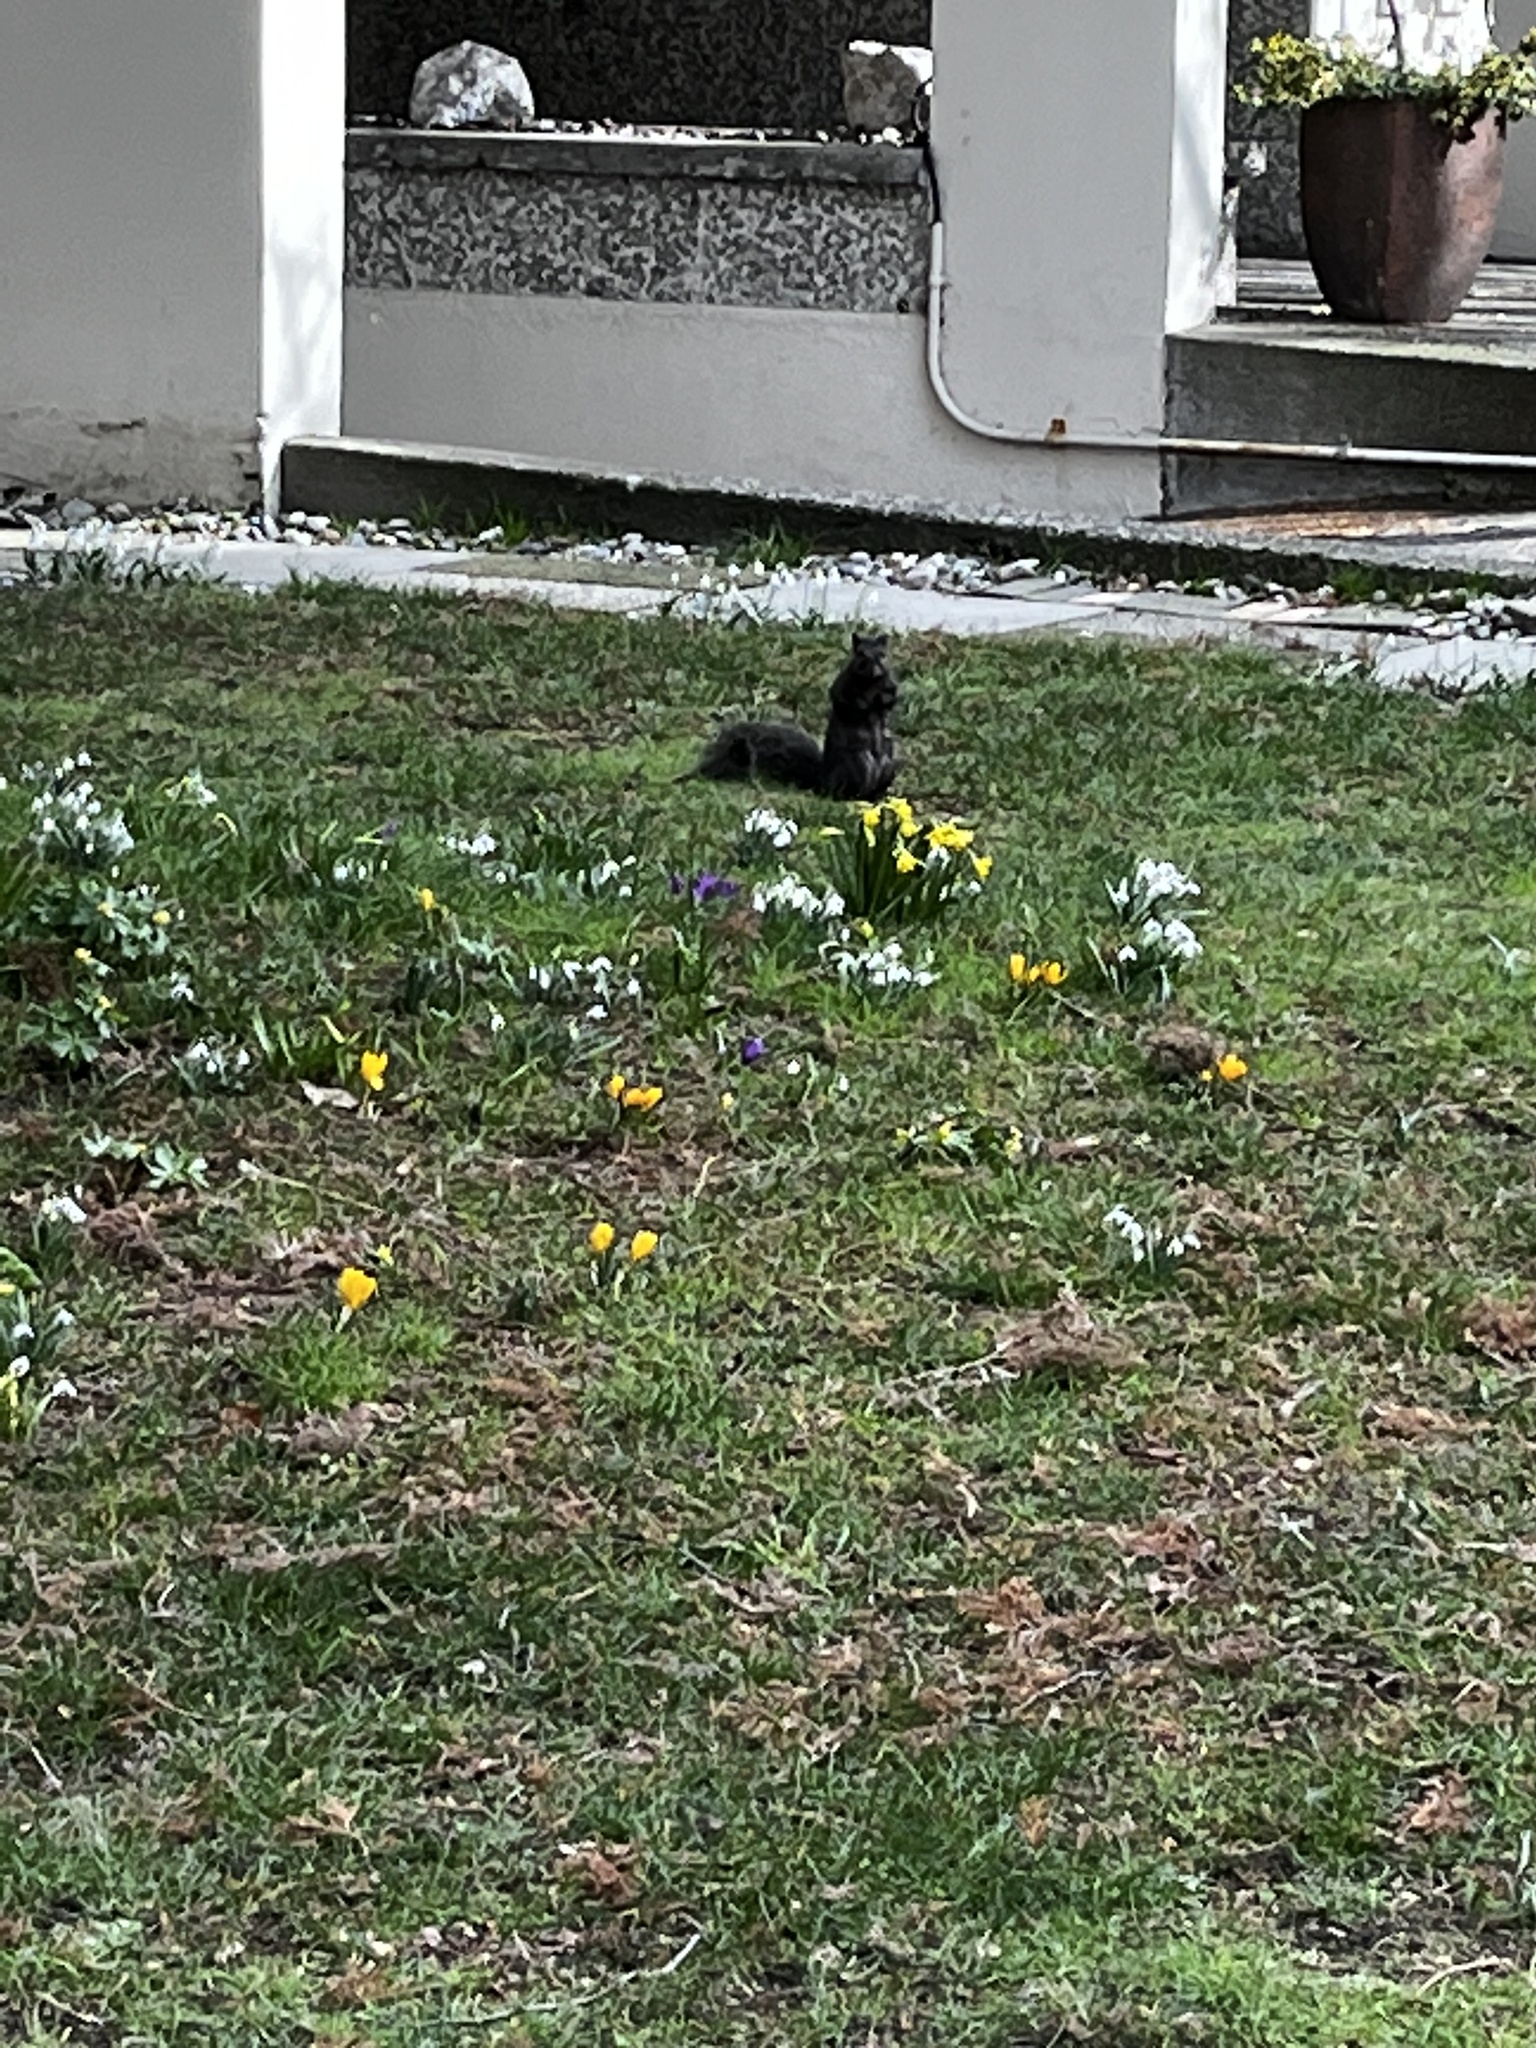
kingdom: Animalia
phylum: Chordata
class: Mammalia
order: Rodentia
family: Sciuridae
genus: Sciurus
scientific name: Sciurus carolinensis
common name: Eastern gray squirrel
